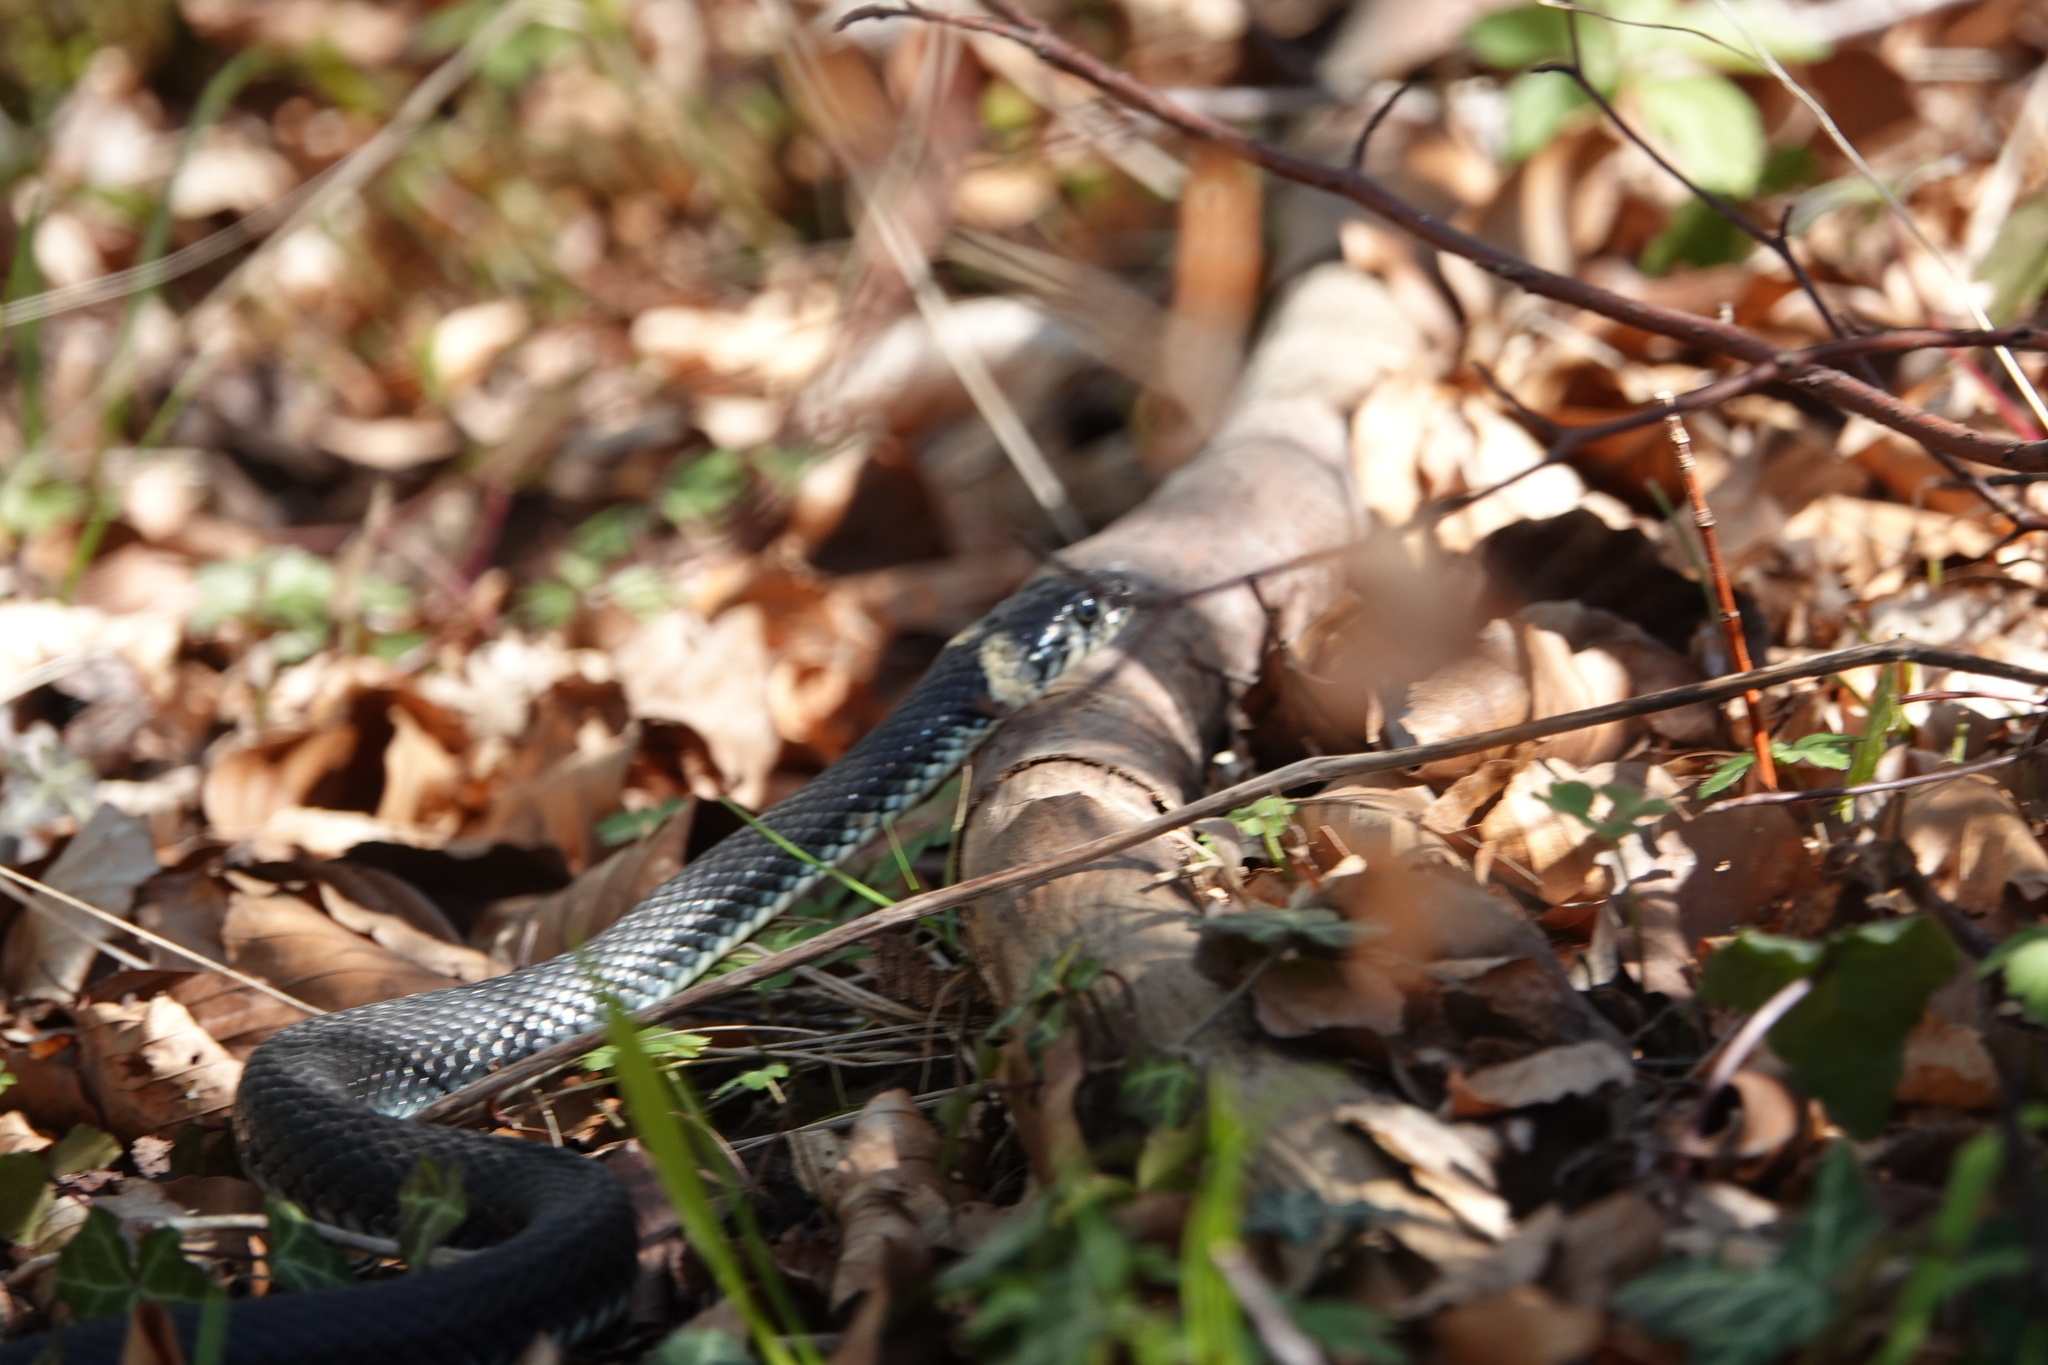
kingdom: Animalia
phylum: Chordata
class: Squamata
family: Colubridae
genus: Natrix
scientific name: Natrix natrix
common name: Grass snake
